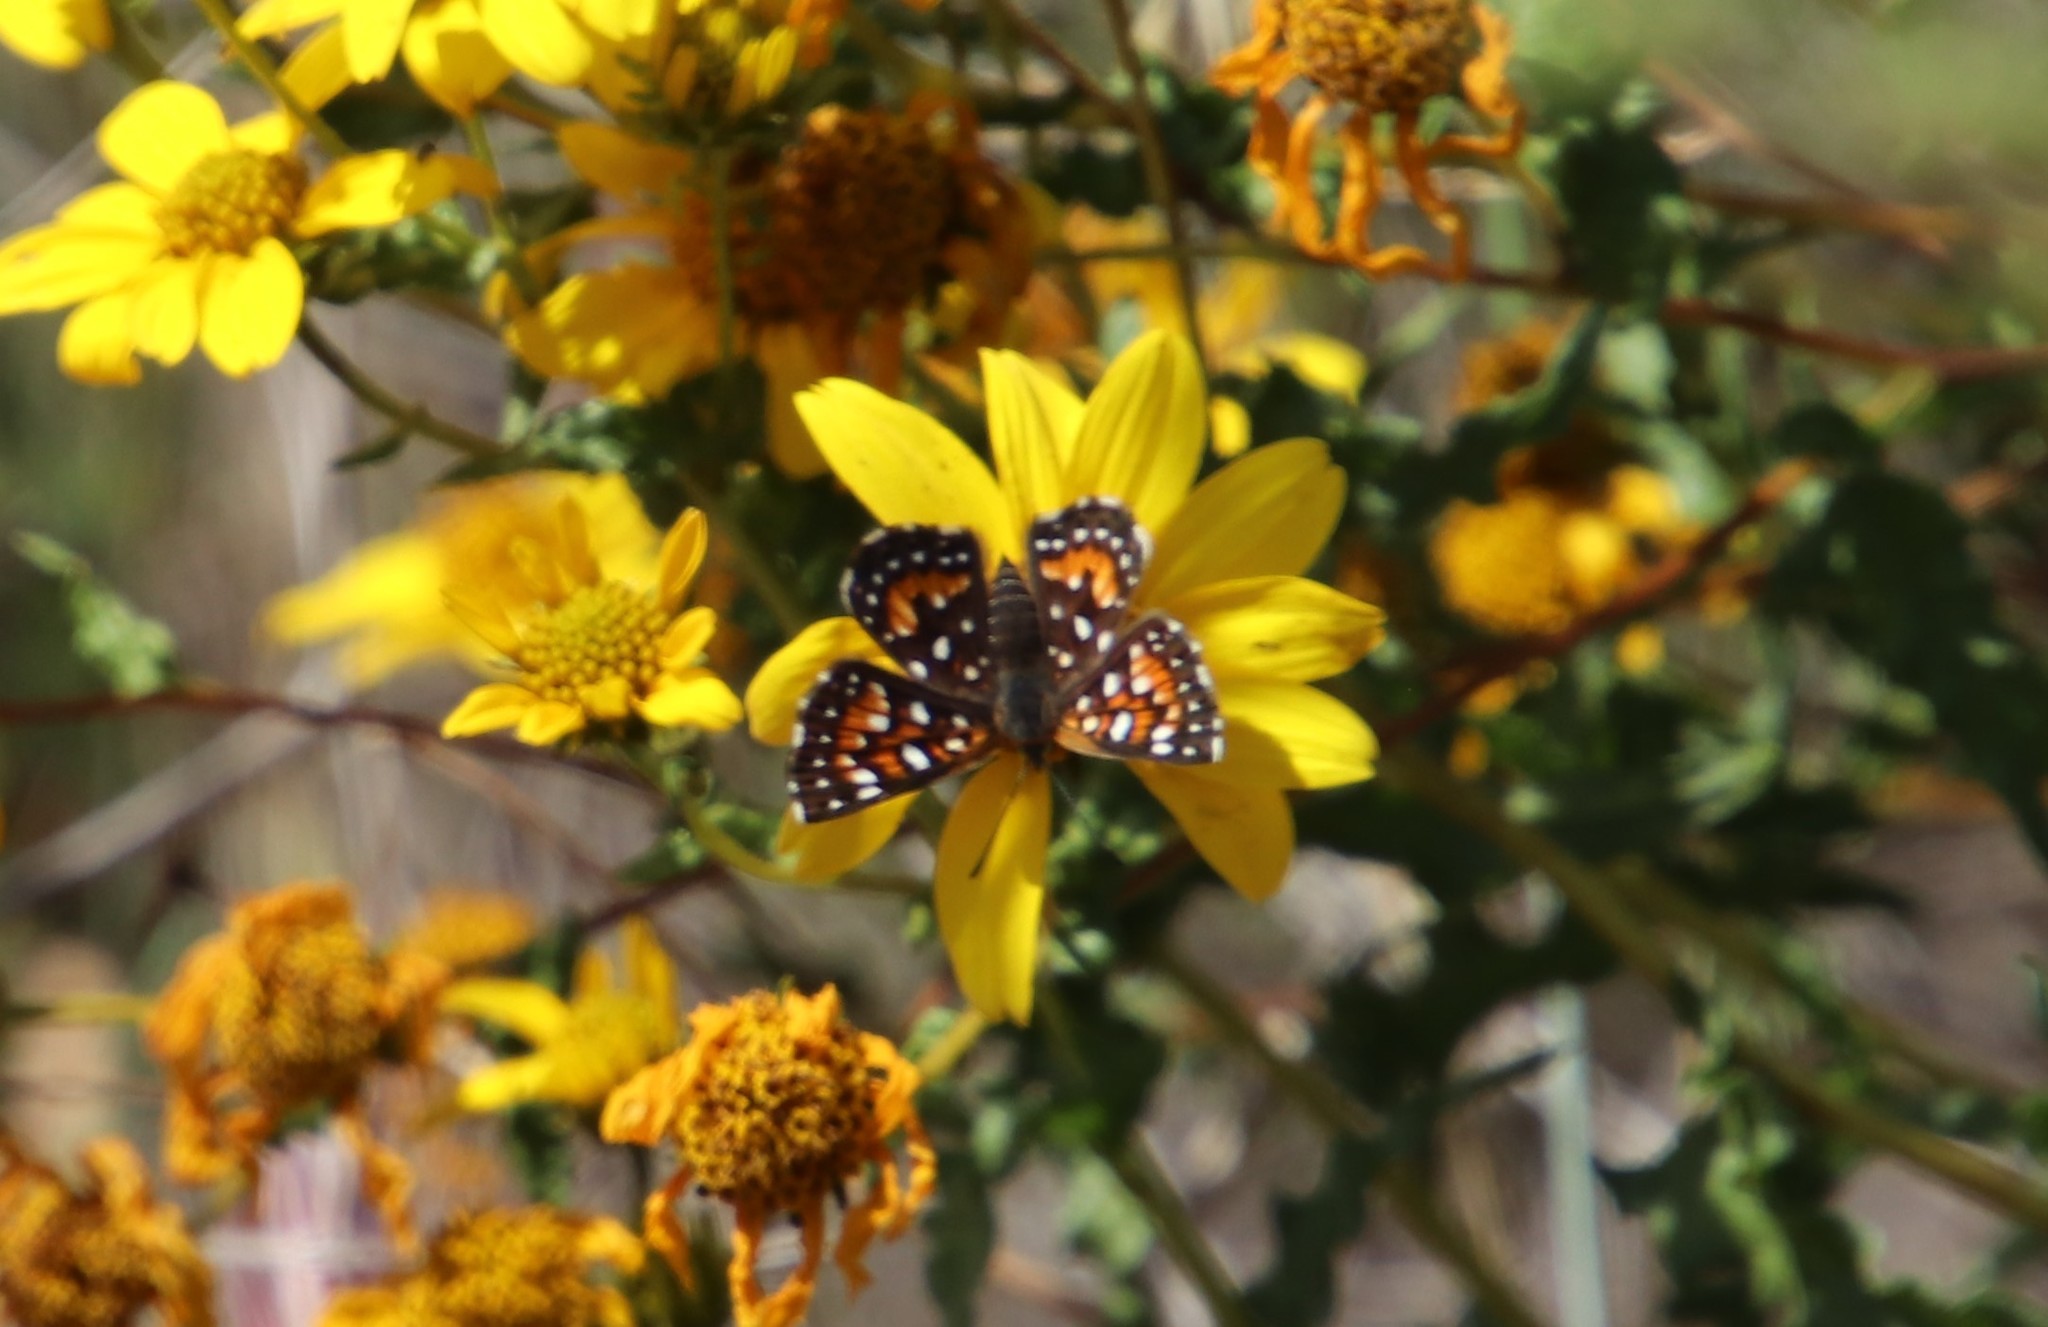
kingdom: Animalia
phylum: Arthropoda
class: Insecta
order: Lepidoptera
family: Riodinidae
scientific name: Riodinidae
